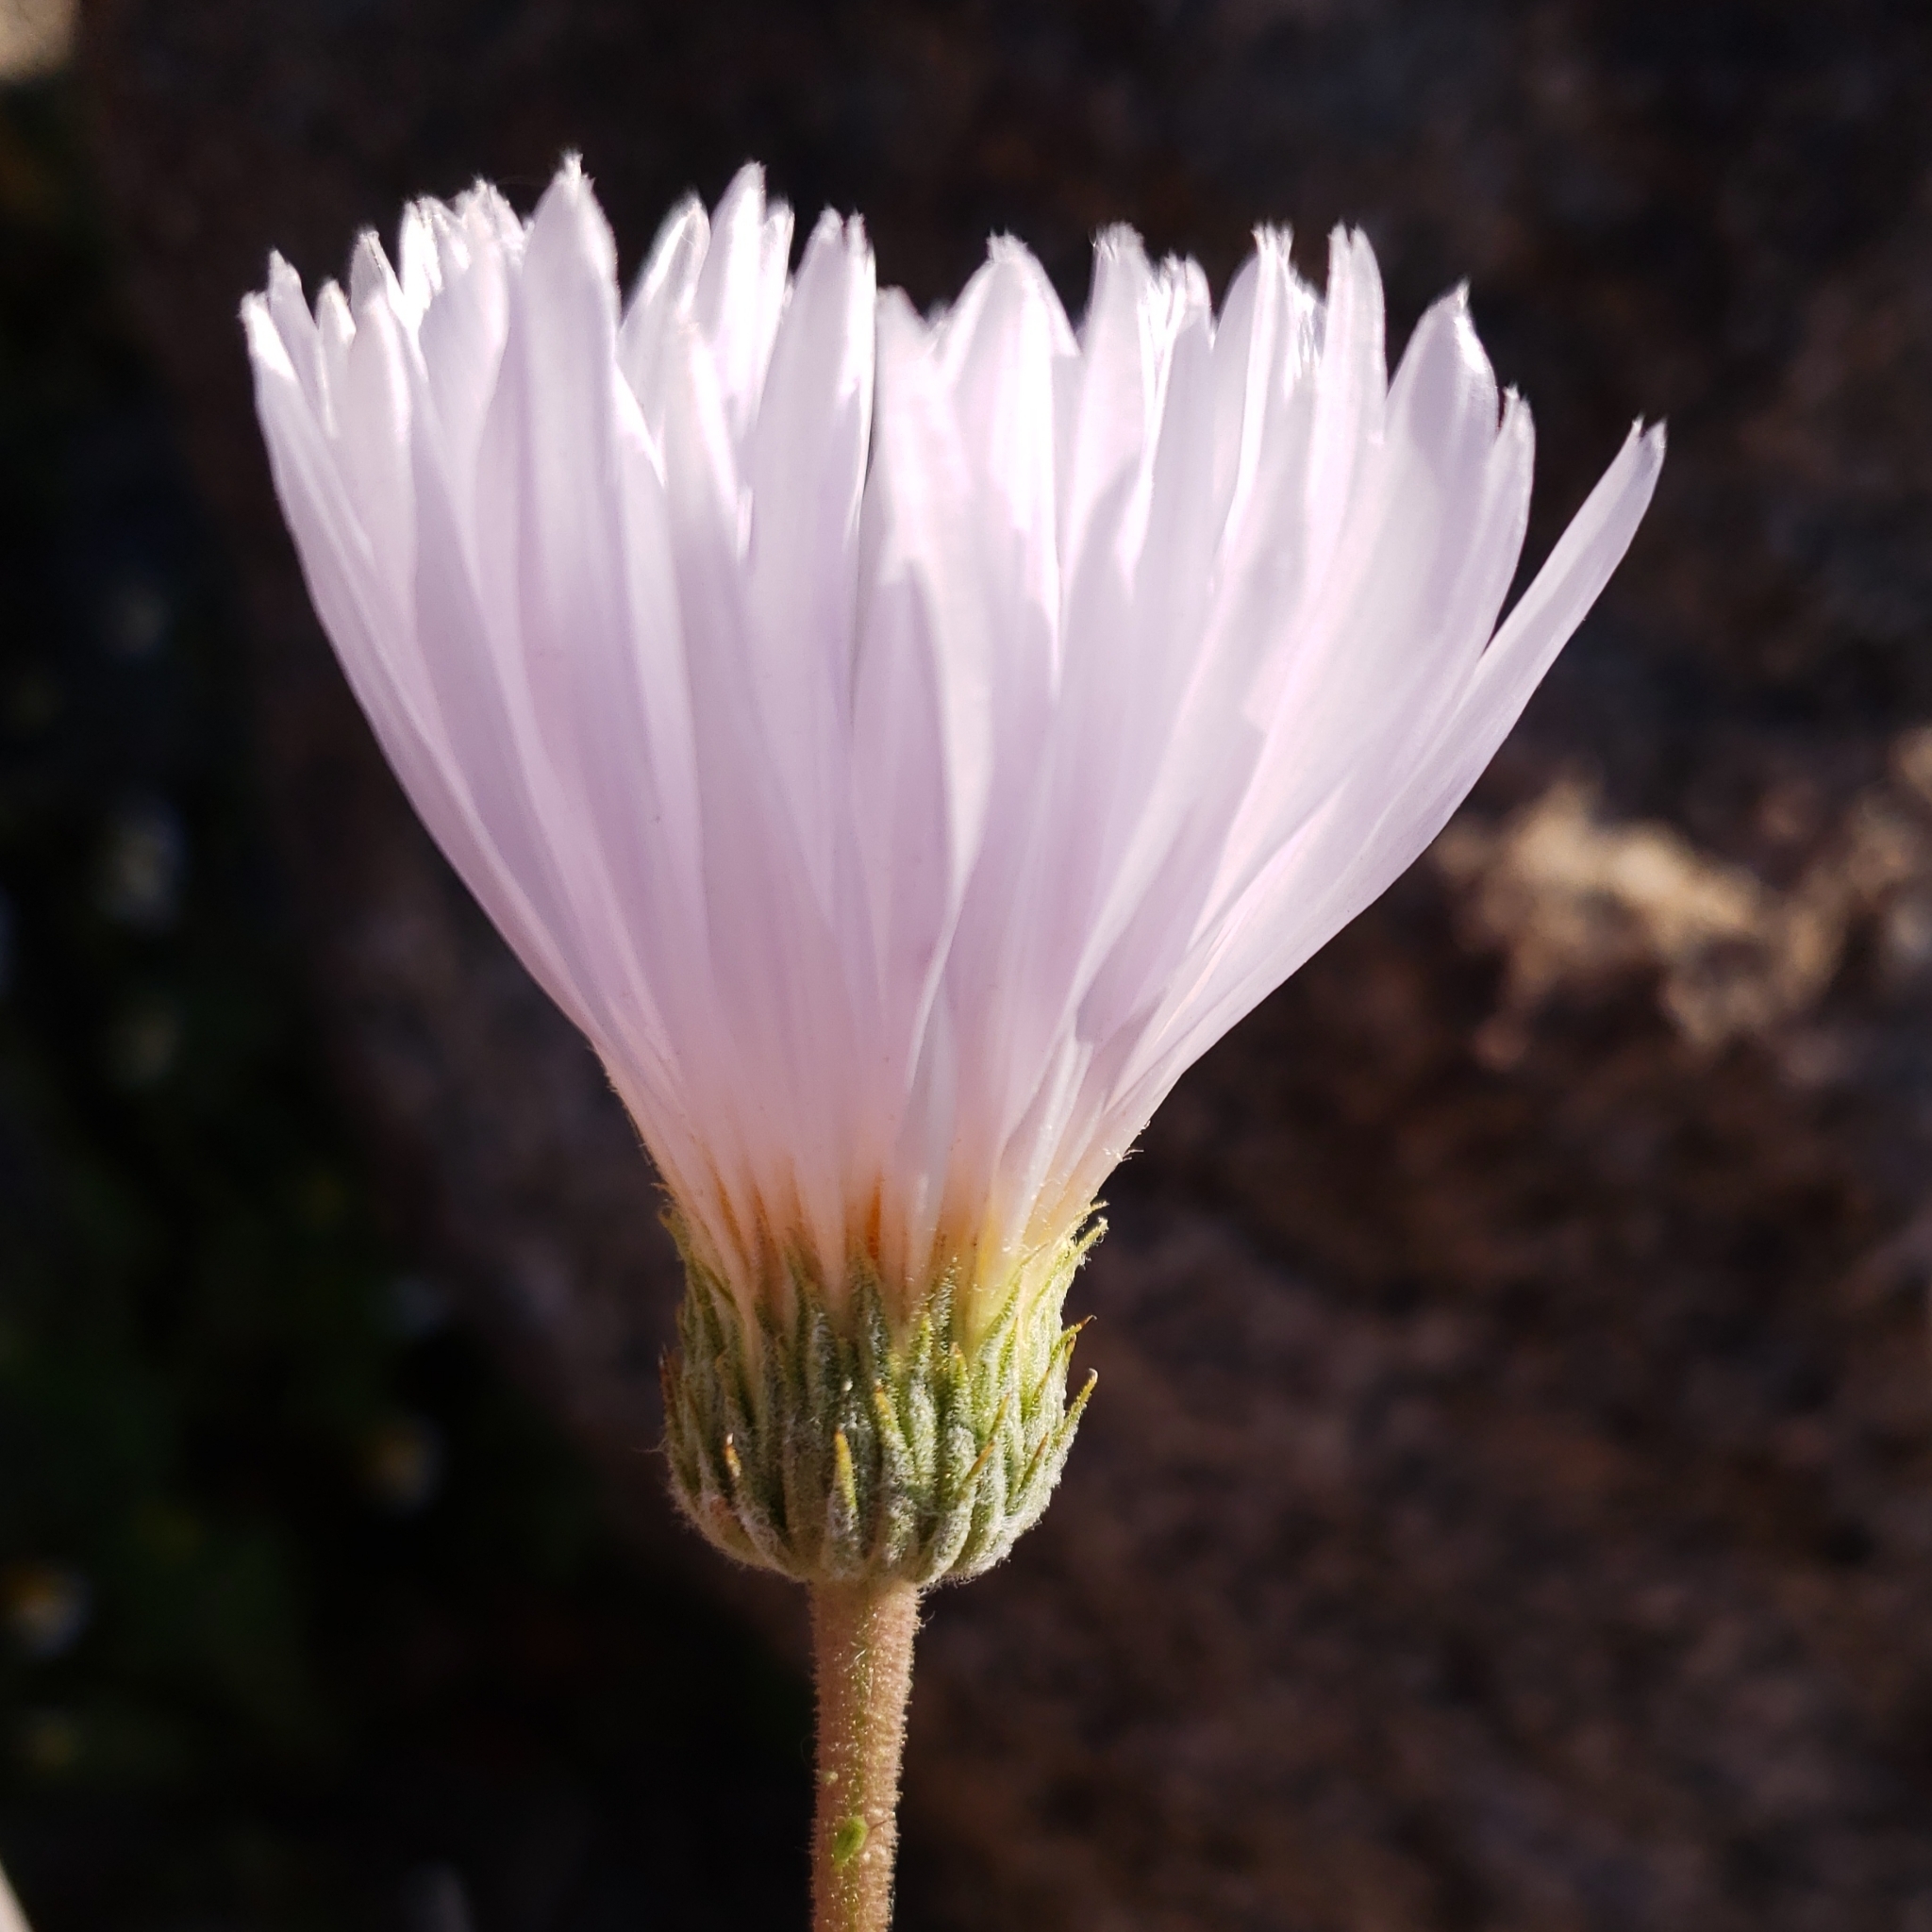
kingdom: Plantae
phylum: Tracheophyta
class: Magnoliopsida
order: Asterales
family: Asteraceae
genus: Xylorhiza
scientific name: Xylorhiza tortifolia
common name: Hurt-leaf woody-aster
